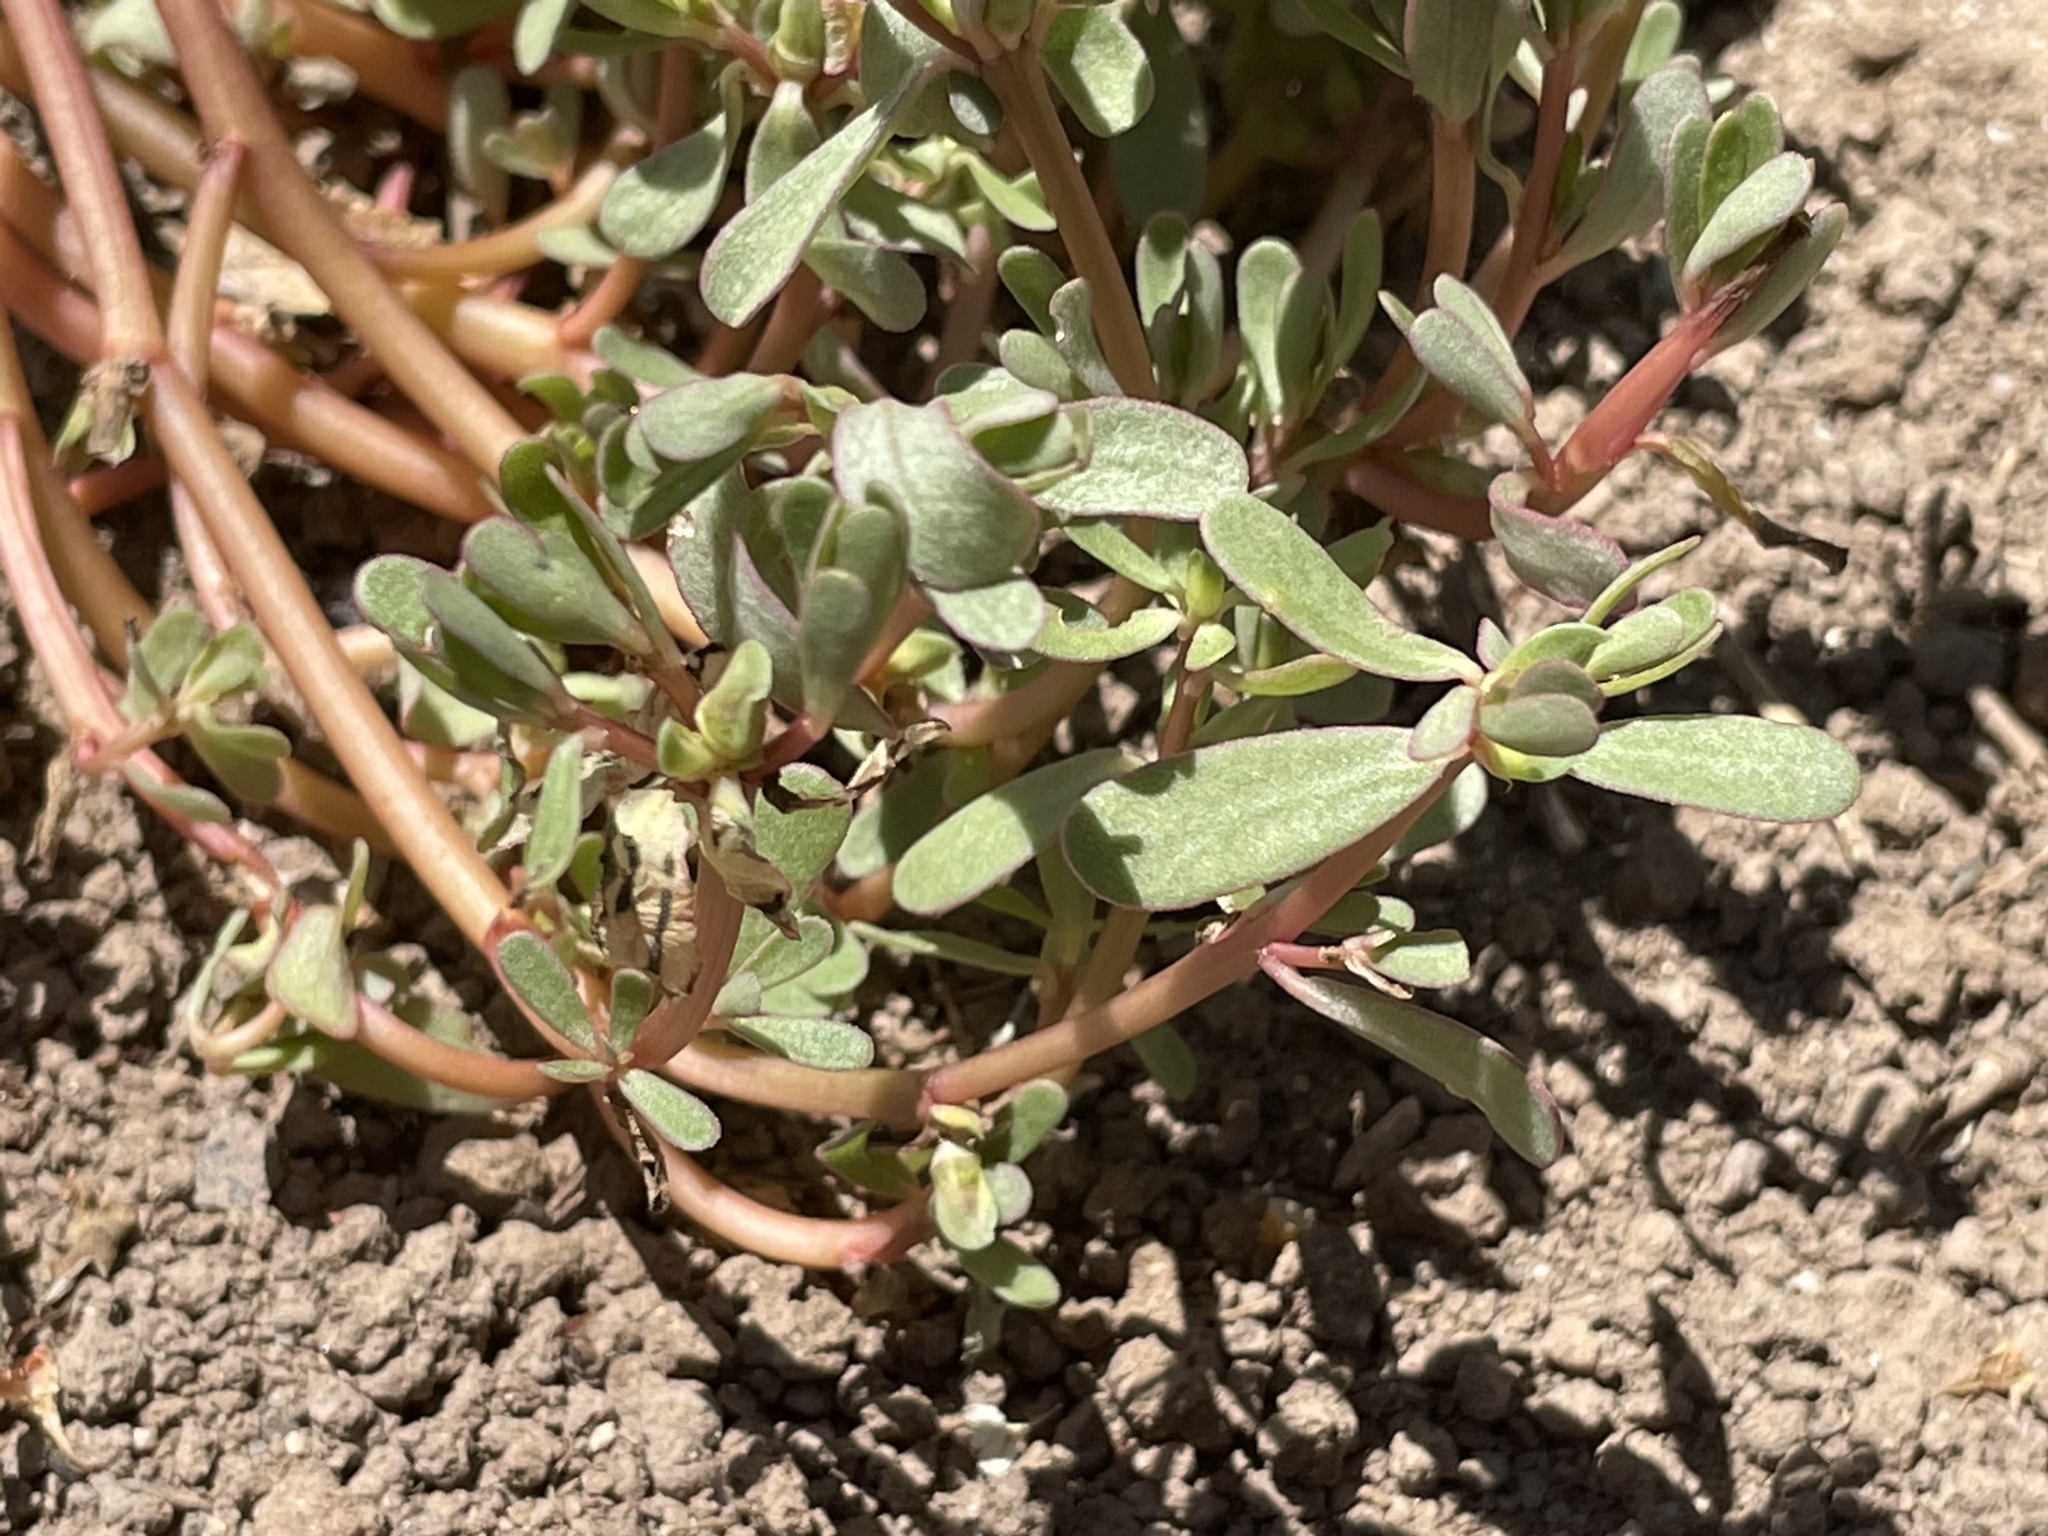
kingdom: Plantae
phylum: Tracheophyta
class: Magnoliopsida
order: Caryophyllales
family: Portulacaceae
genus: Portulaca
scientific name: Portulaca oleracea
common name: Common purslane
